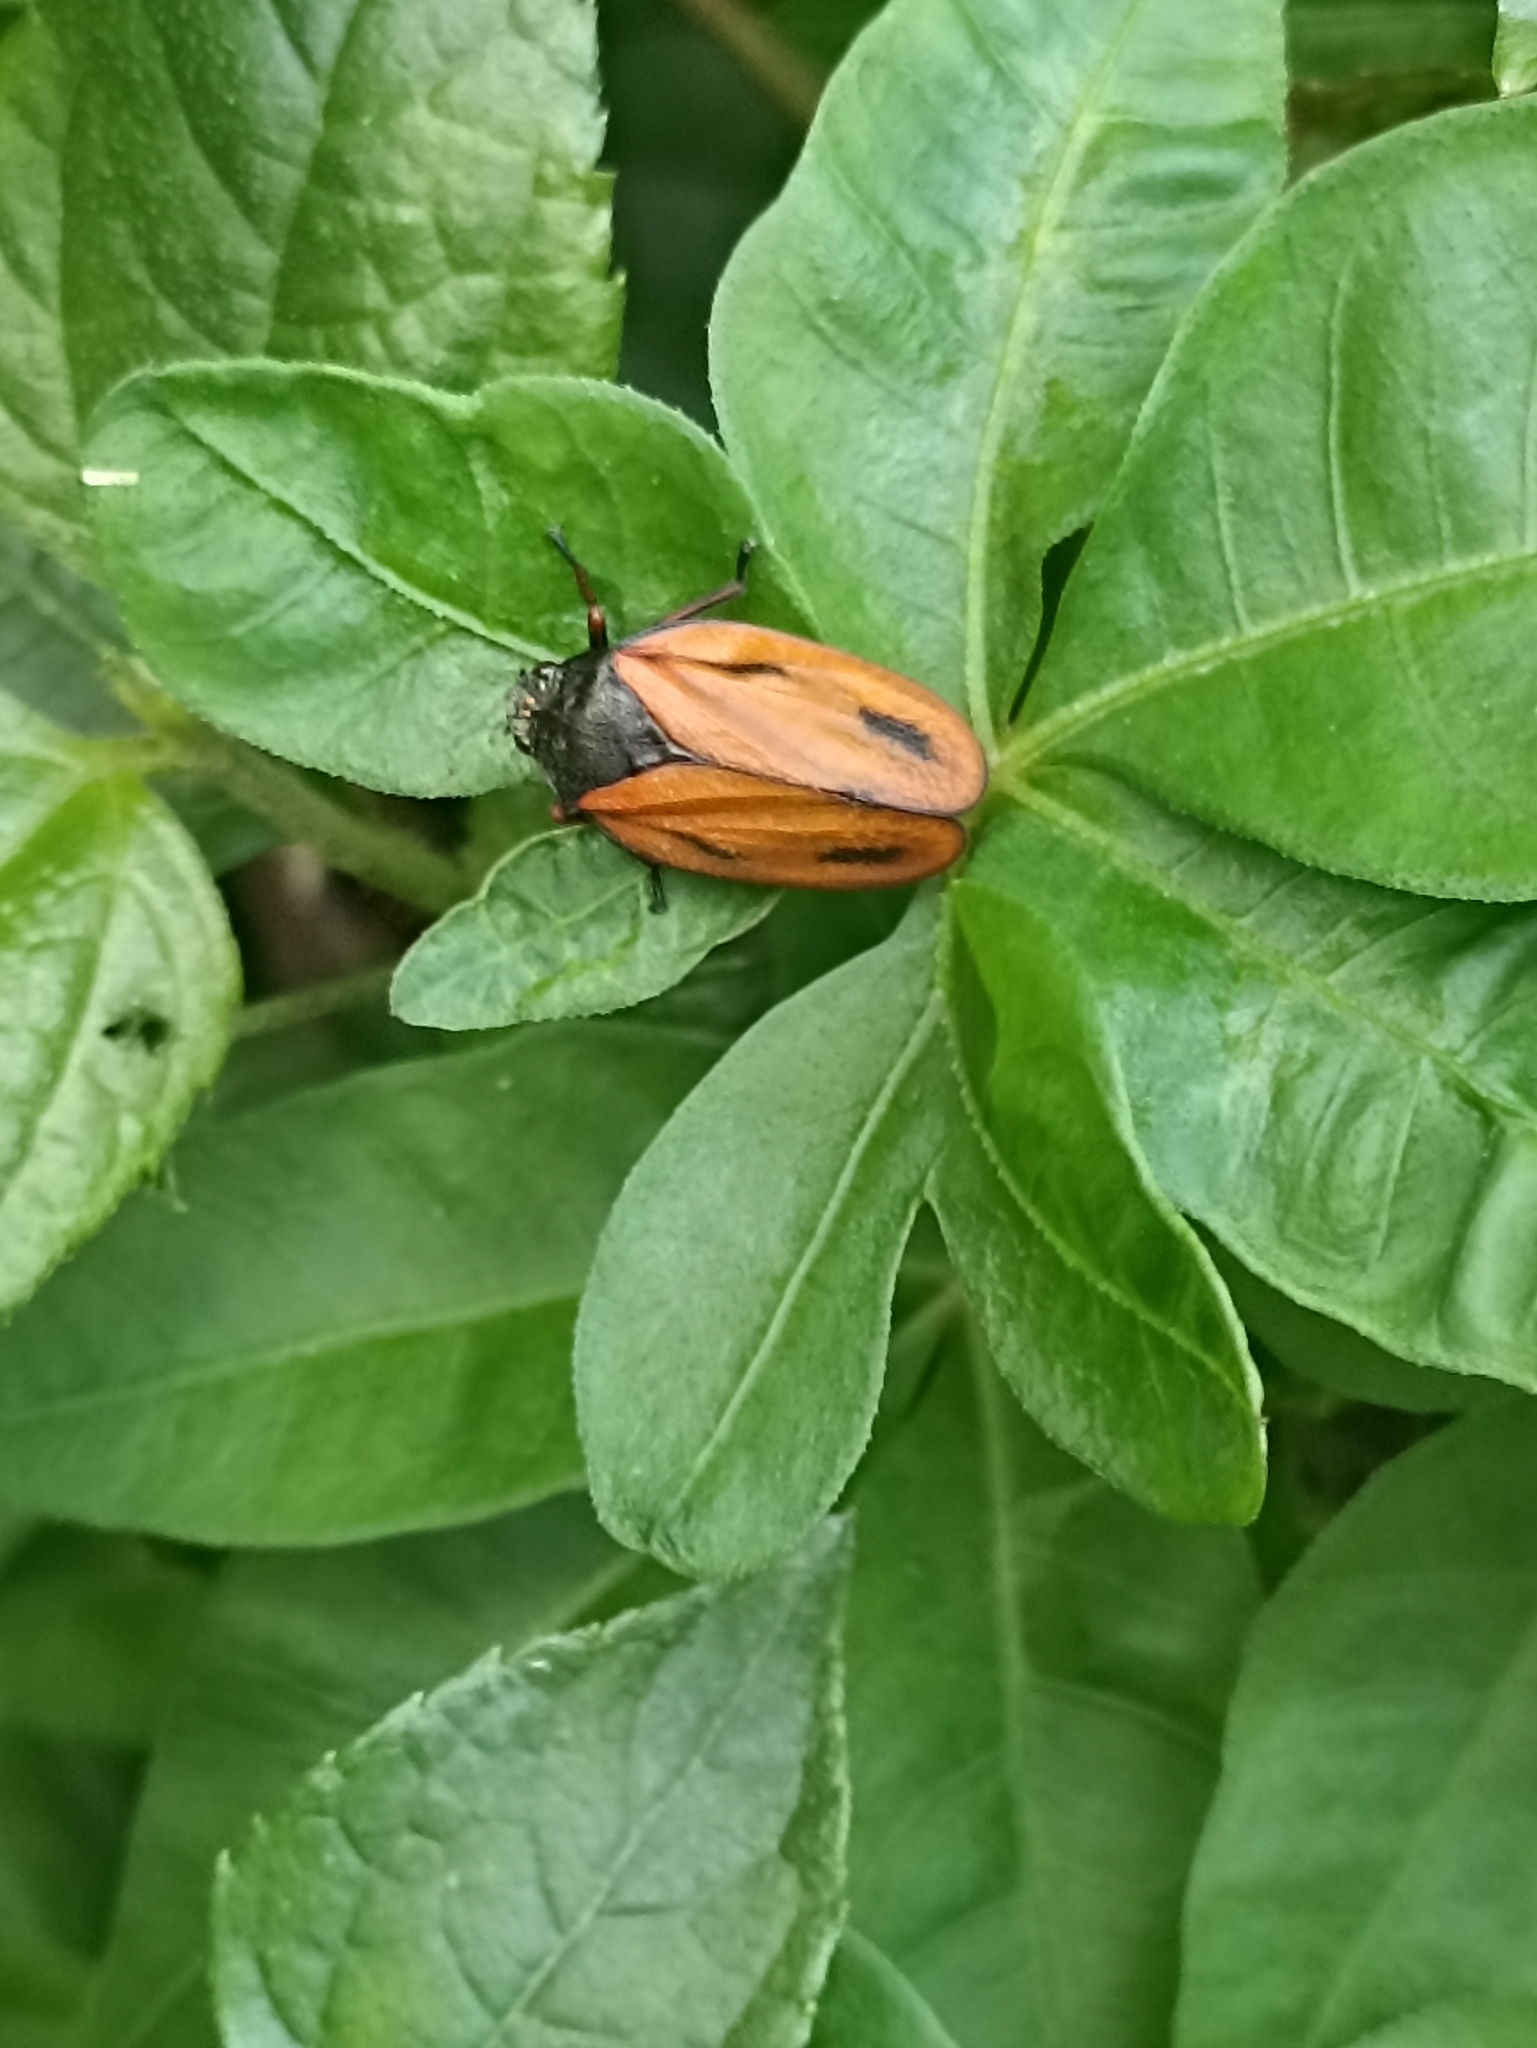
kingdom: Animalia
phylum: Arthropoda
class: Insecta
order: Hemiptera
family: Cercopidae
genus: Mahanarva
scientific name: Mahanarva paraguayana
